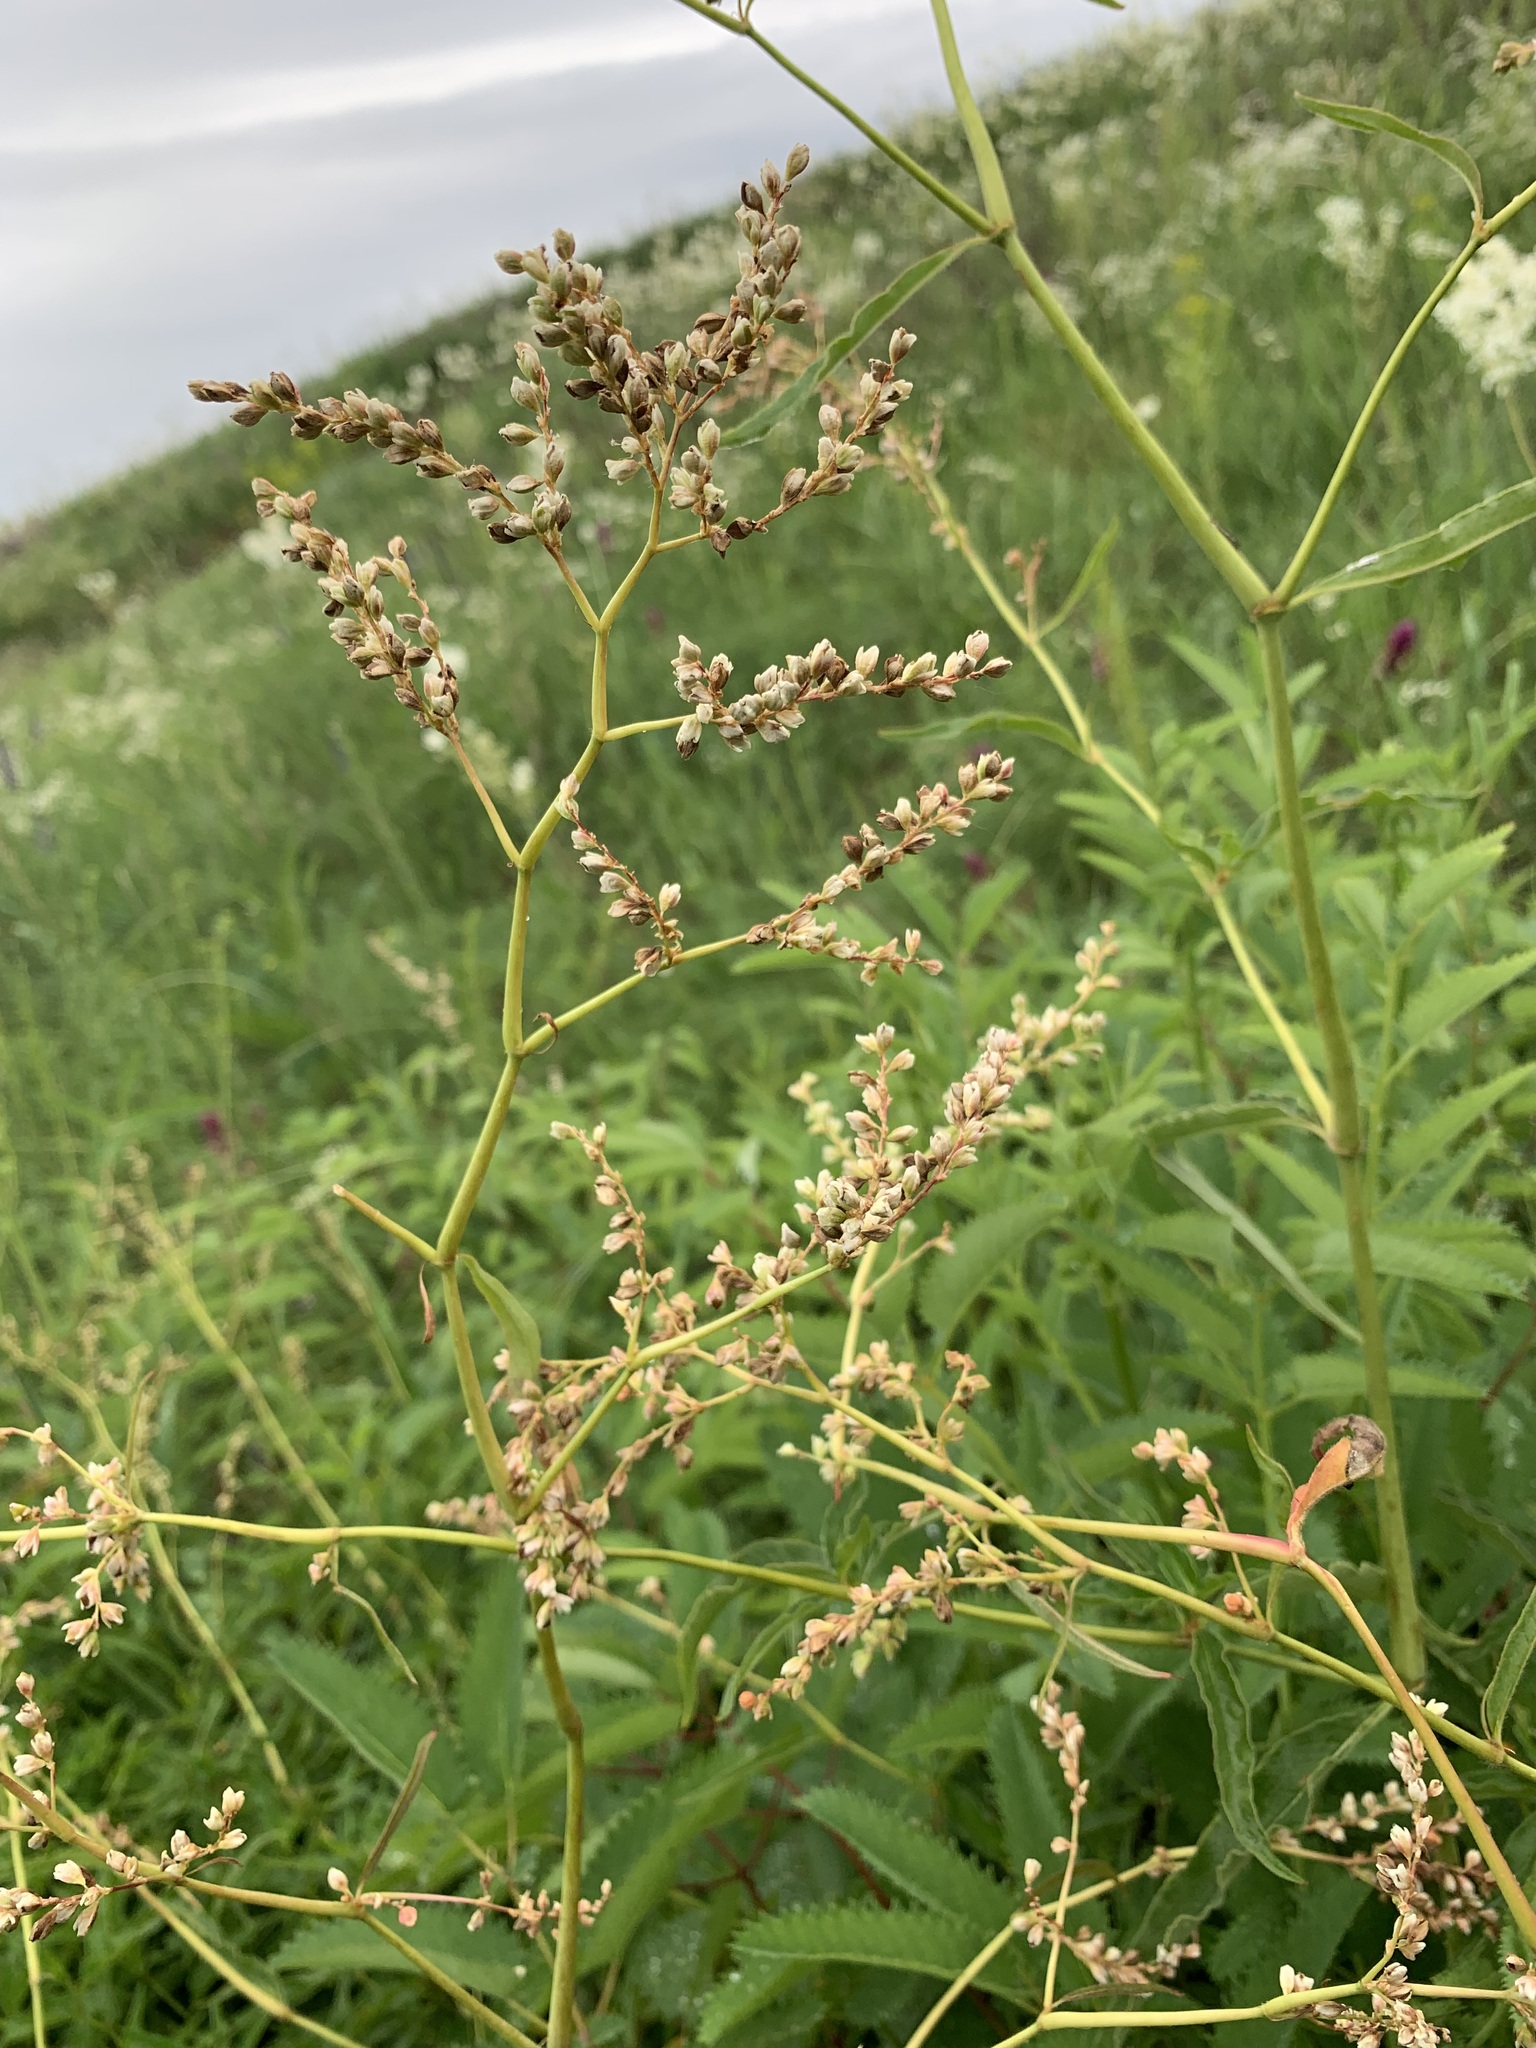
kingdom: Plantae
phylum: Tracheophyta
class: Magnoliopsida
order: Caryophyllales
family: Polygonaceae
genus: Koenigia
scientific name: Koenigia alpina
